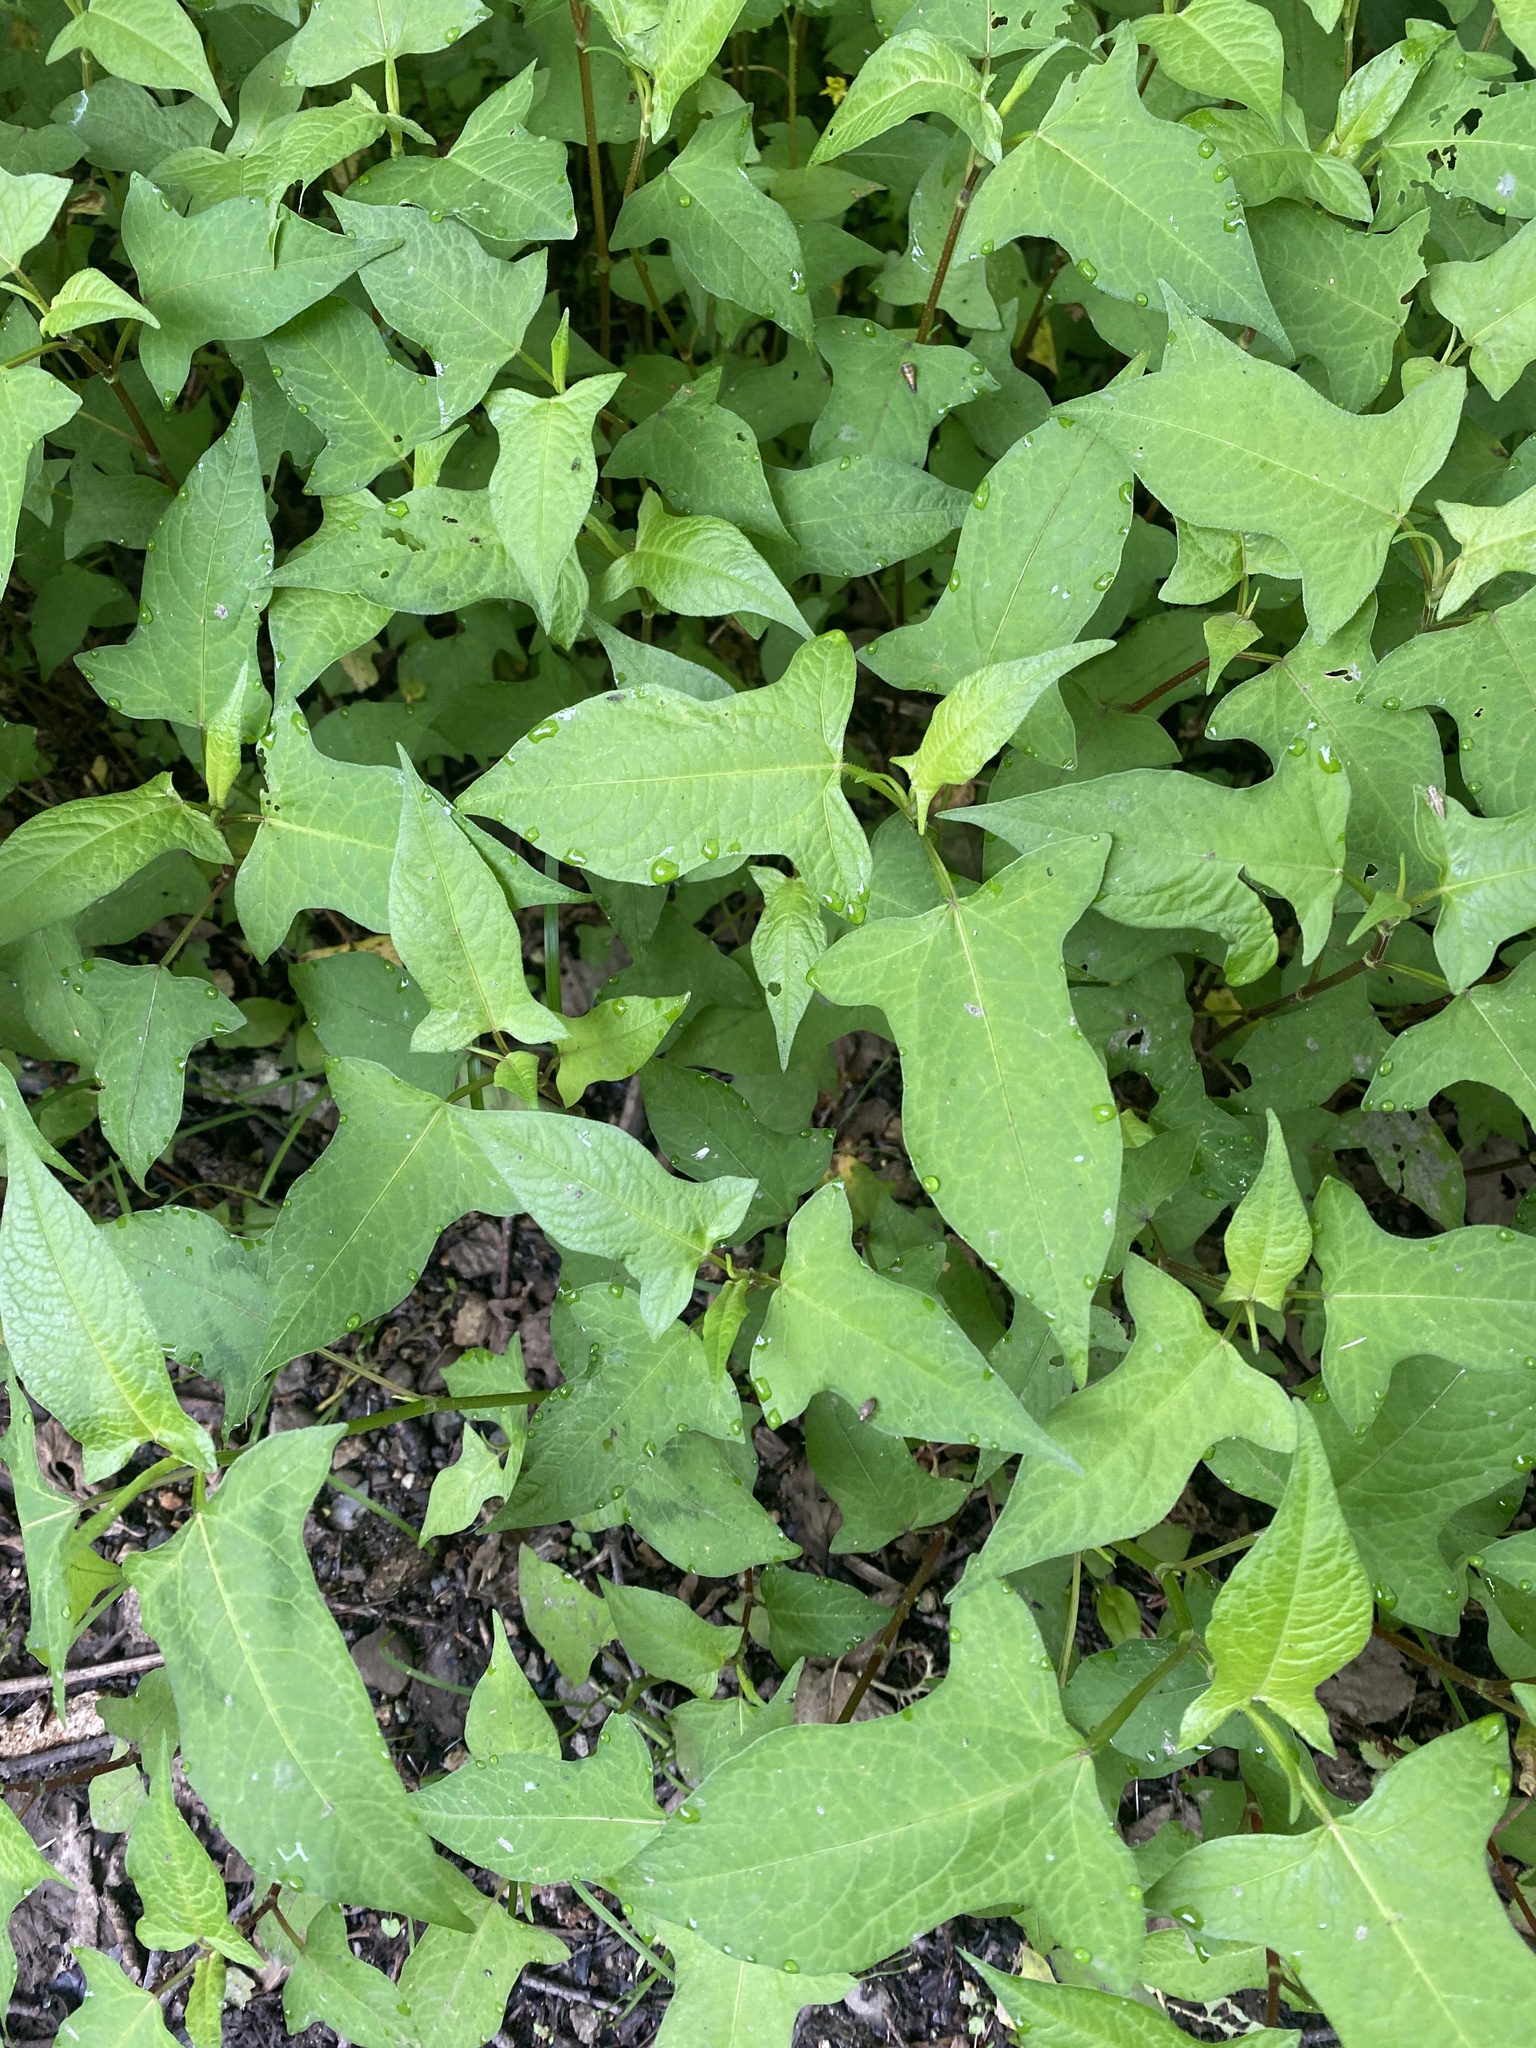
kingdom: Plantae
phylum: Tracheophyta
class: Magnoliopsida
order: Asterales
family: Asteraceae
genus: Parasenecio
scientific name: Parasenecio hastatus
